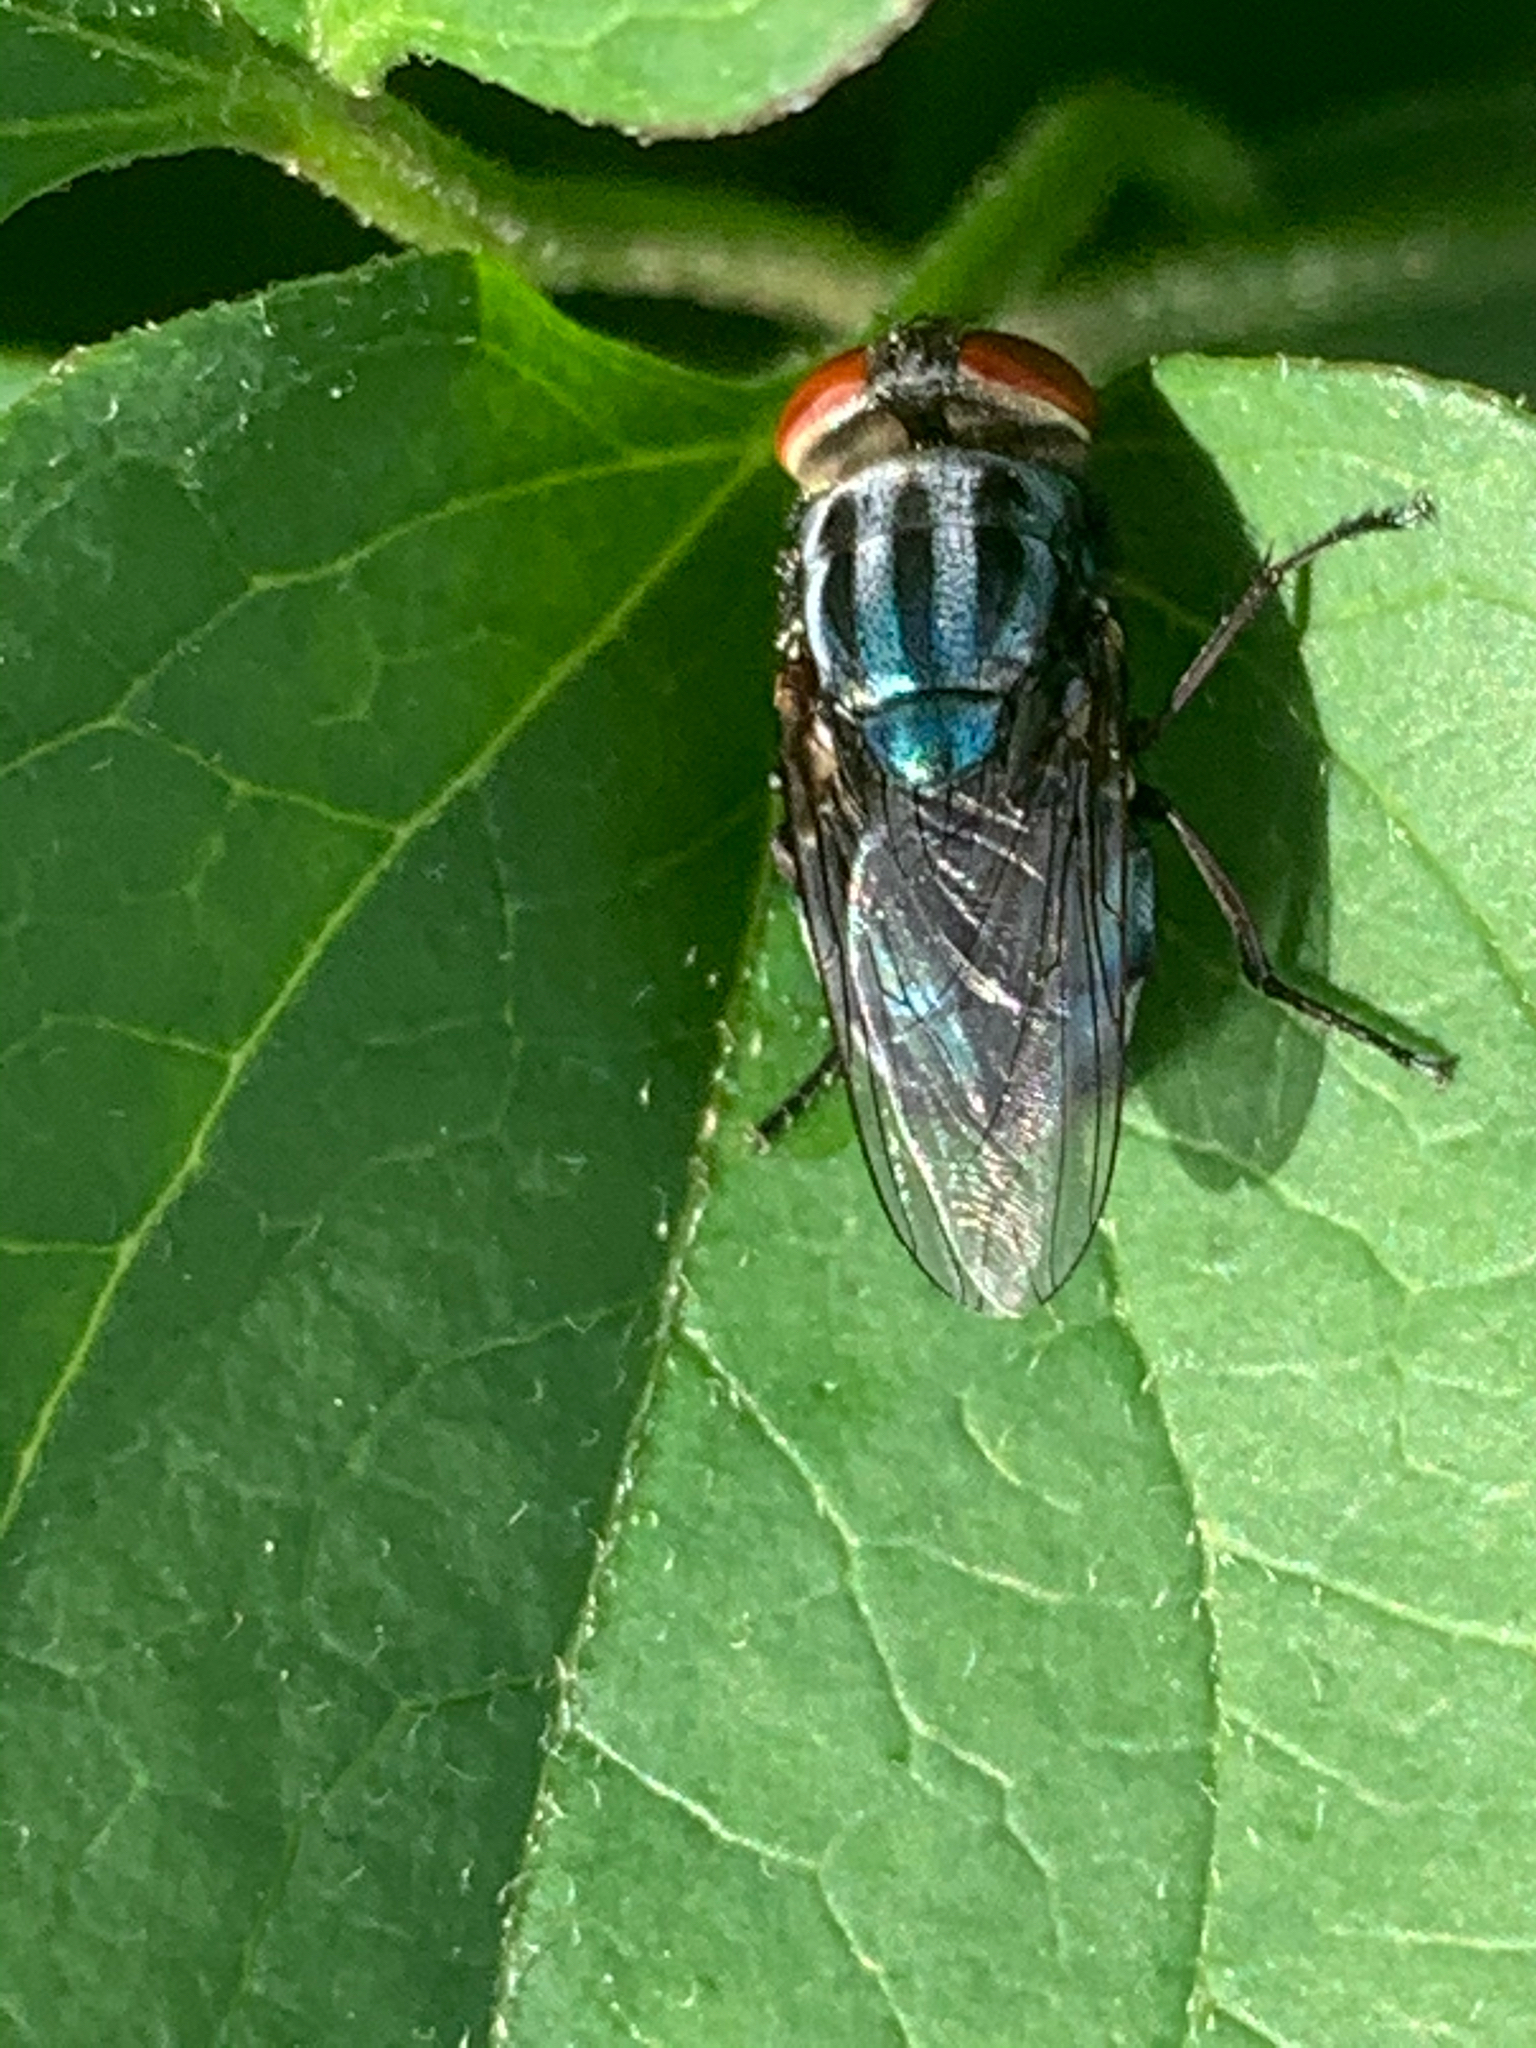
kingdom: Animalia
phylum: Arthropoda
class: Insecta
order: Diptera
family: Calliphoridae
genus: Cochliomyia
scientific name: Cochliomyia macellaria
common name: Secondary screwworm
